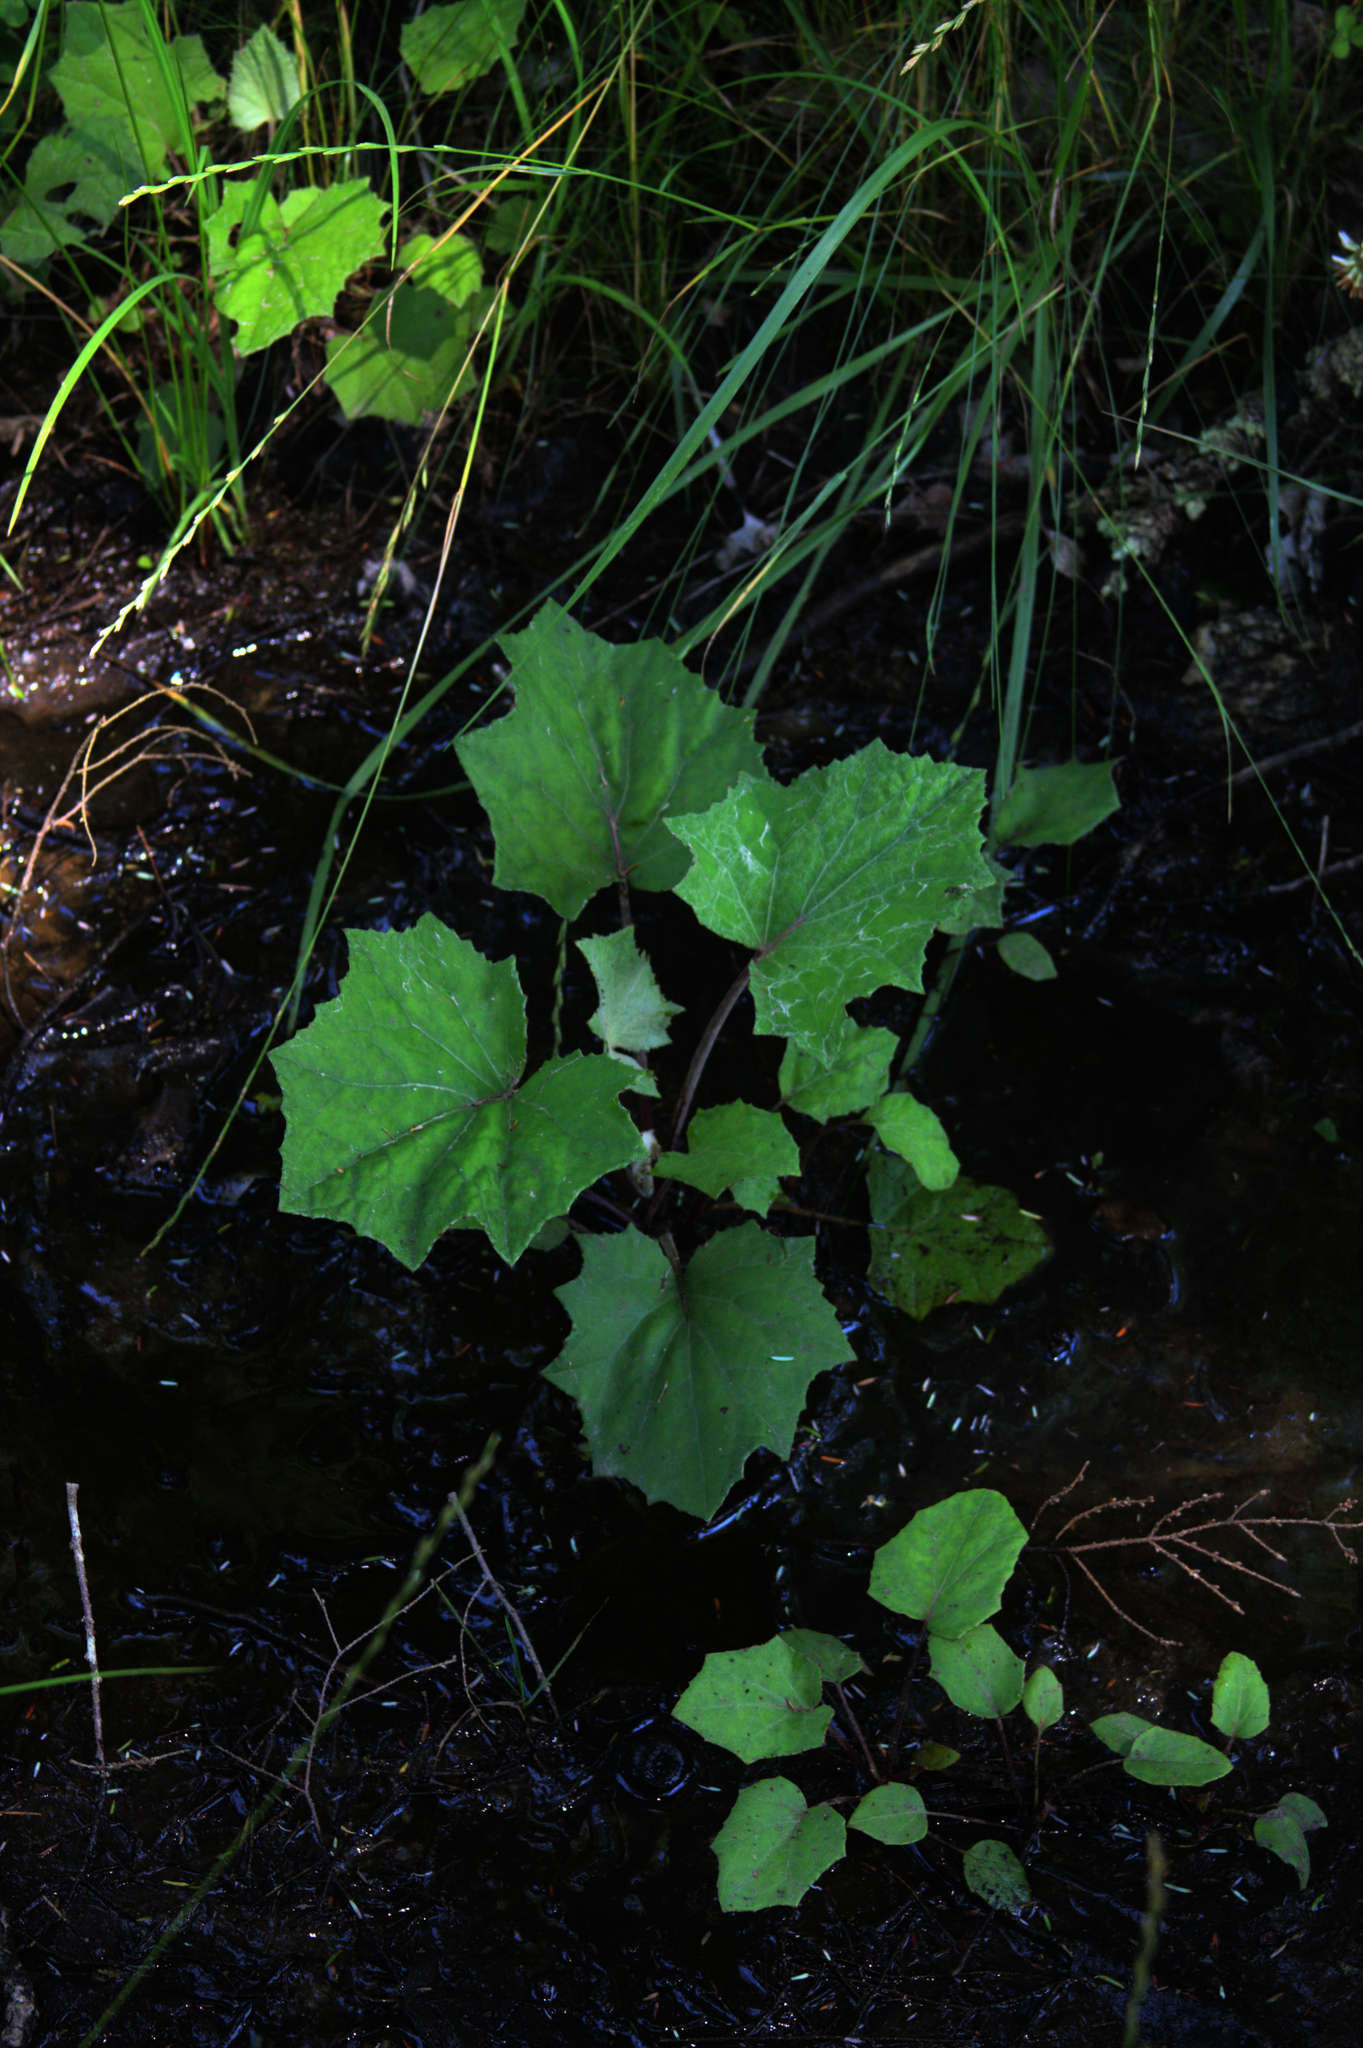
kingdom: Plantae
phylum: Tracheophyta
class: Magnoliopsida
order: Asterales
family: Asteraceae
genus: Tussilago
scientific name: Tussilago farfara
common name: Coltsfoot
